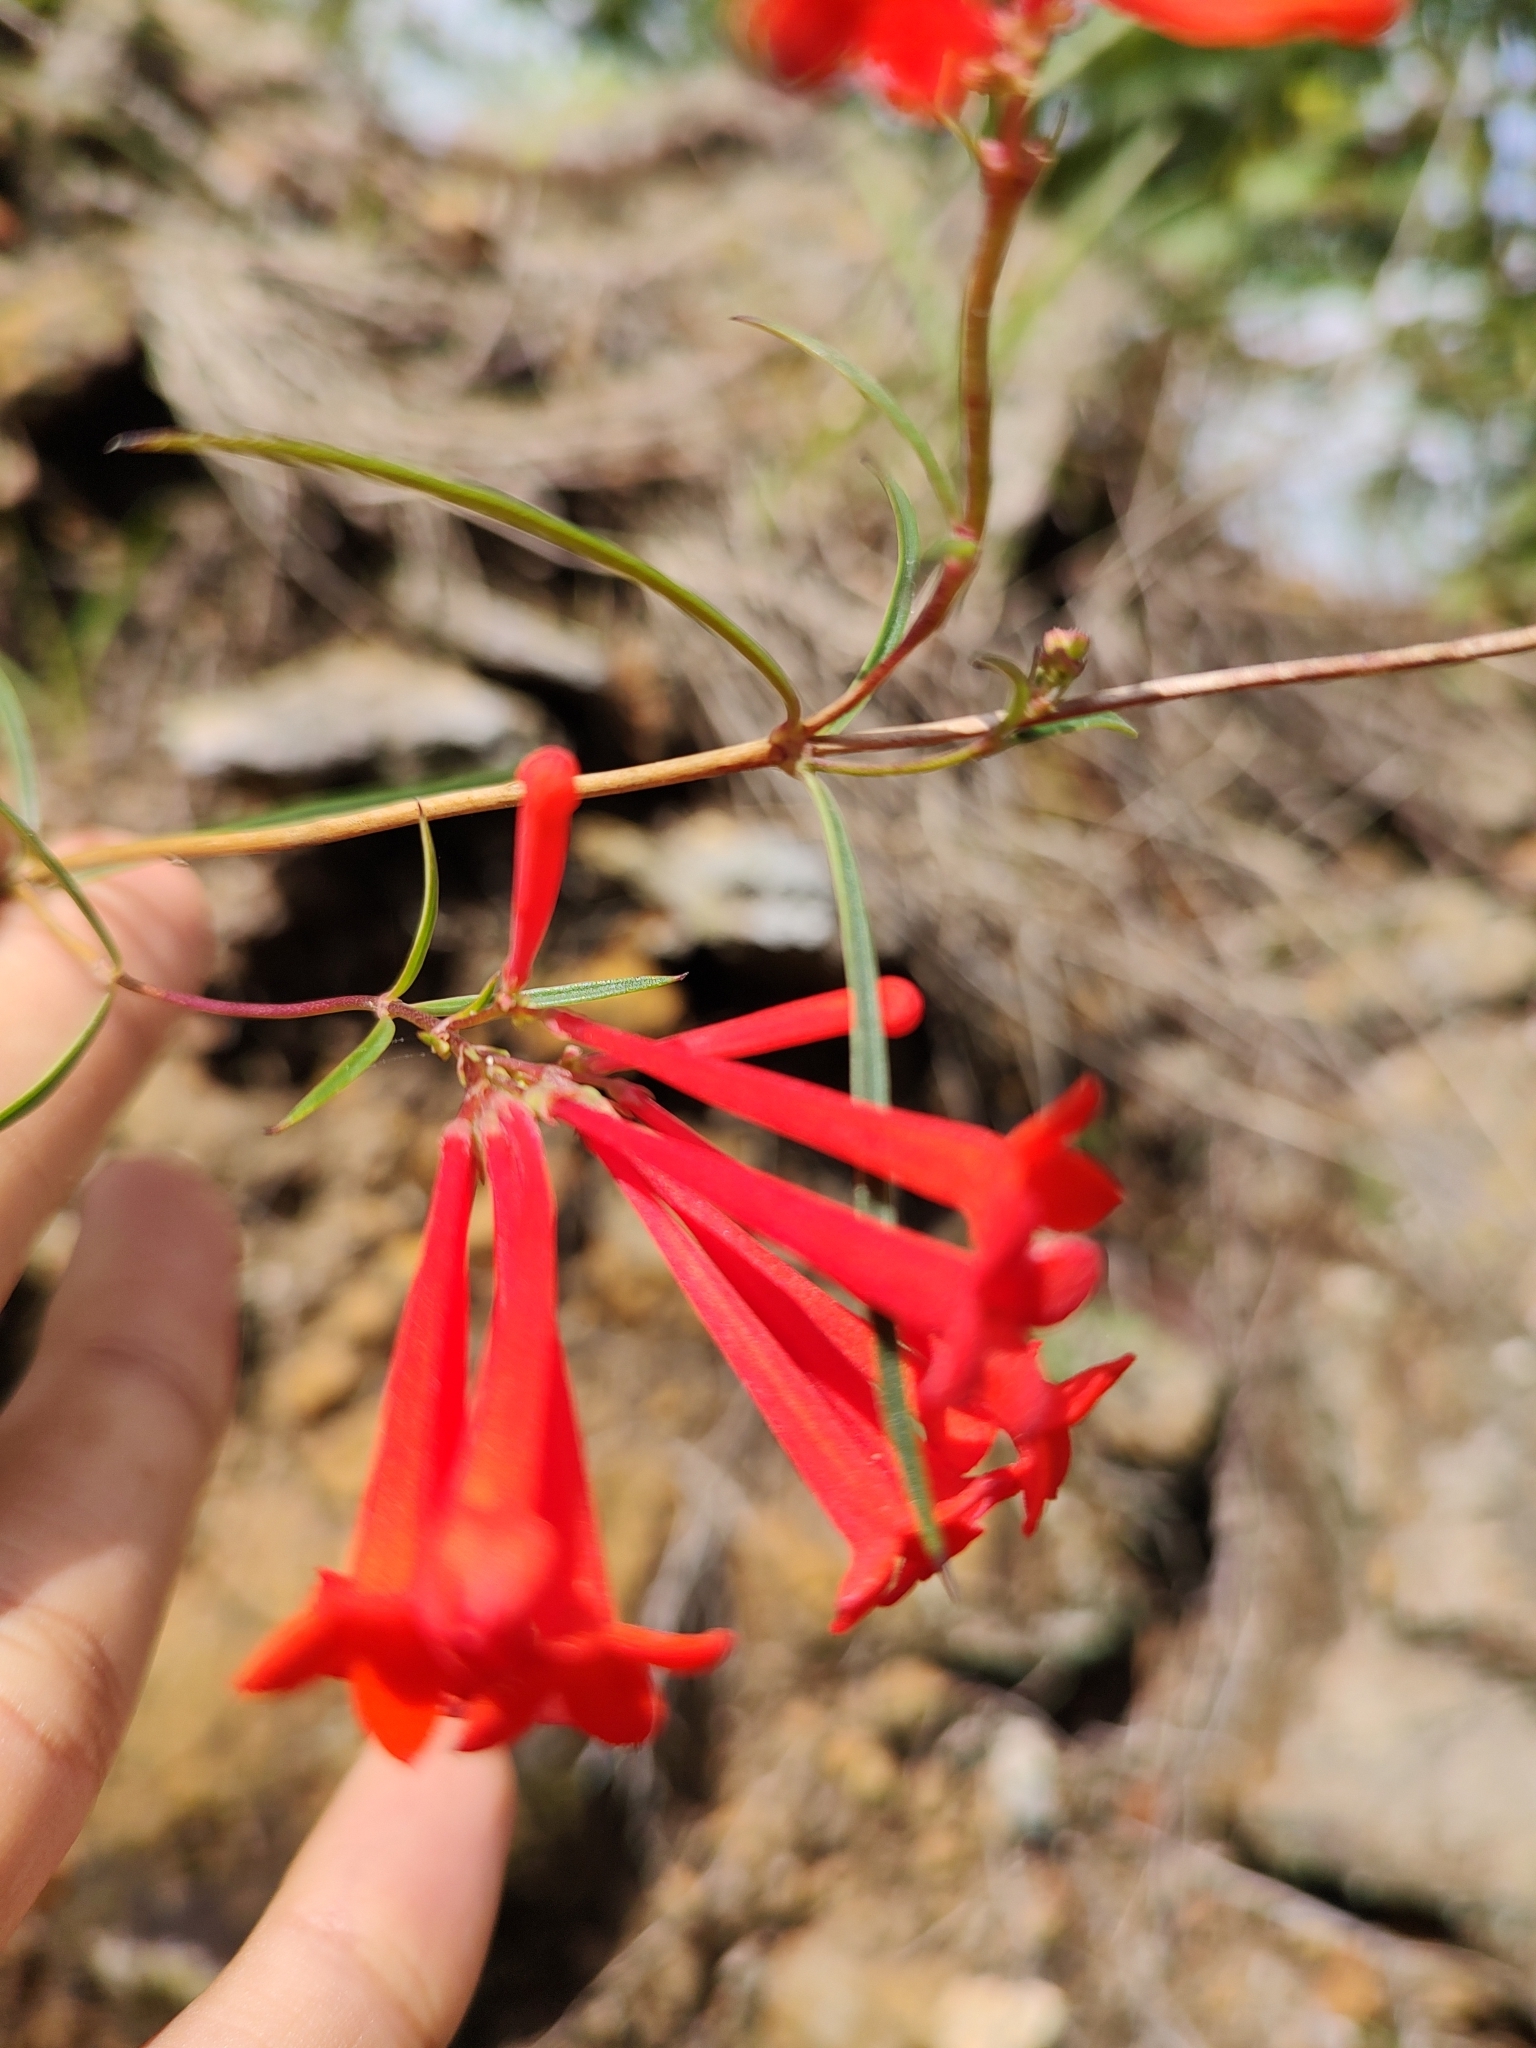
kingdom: Plantae
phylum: Tracheophyta
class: Magnoliopsida
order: Gentianales
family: Rubiaceae
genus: Bouvardia
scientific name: Bouvardia ternifolia
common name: Scarlet bouvardia
